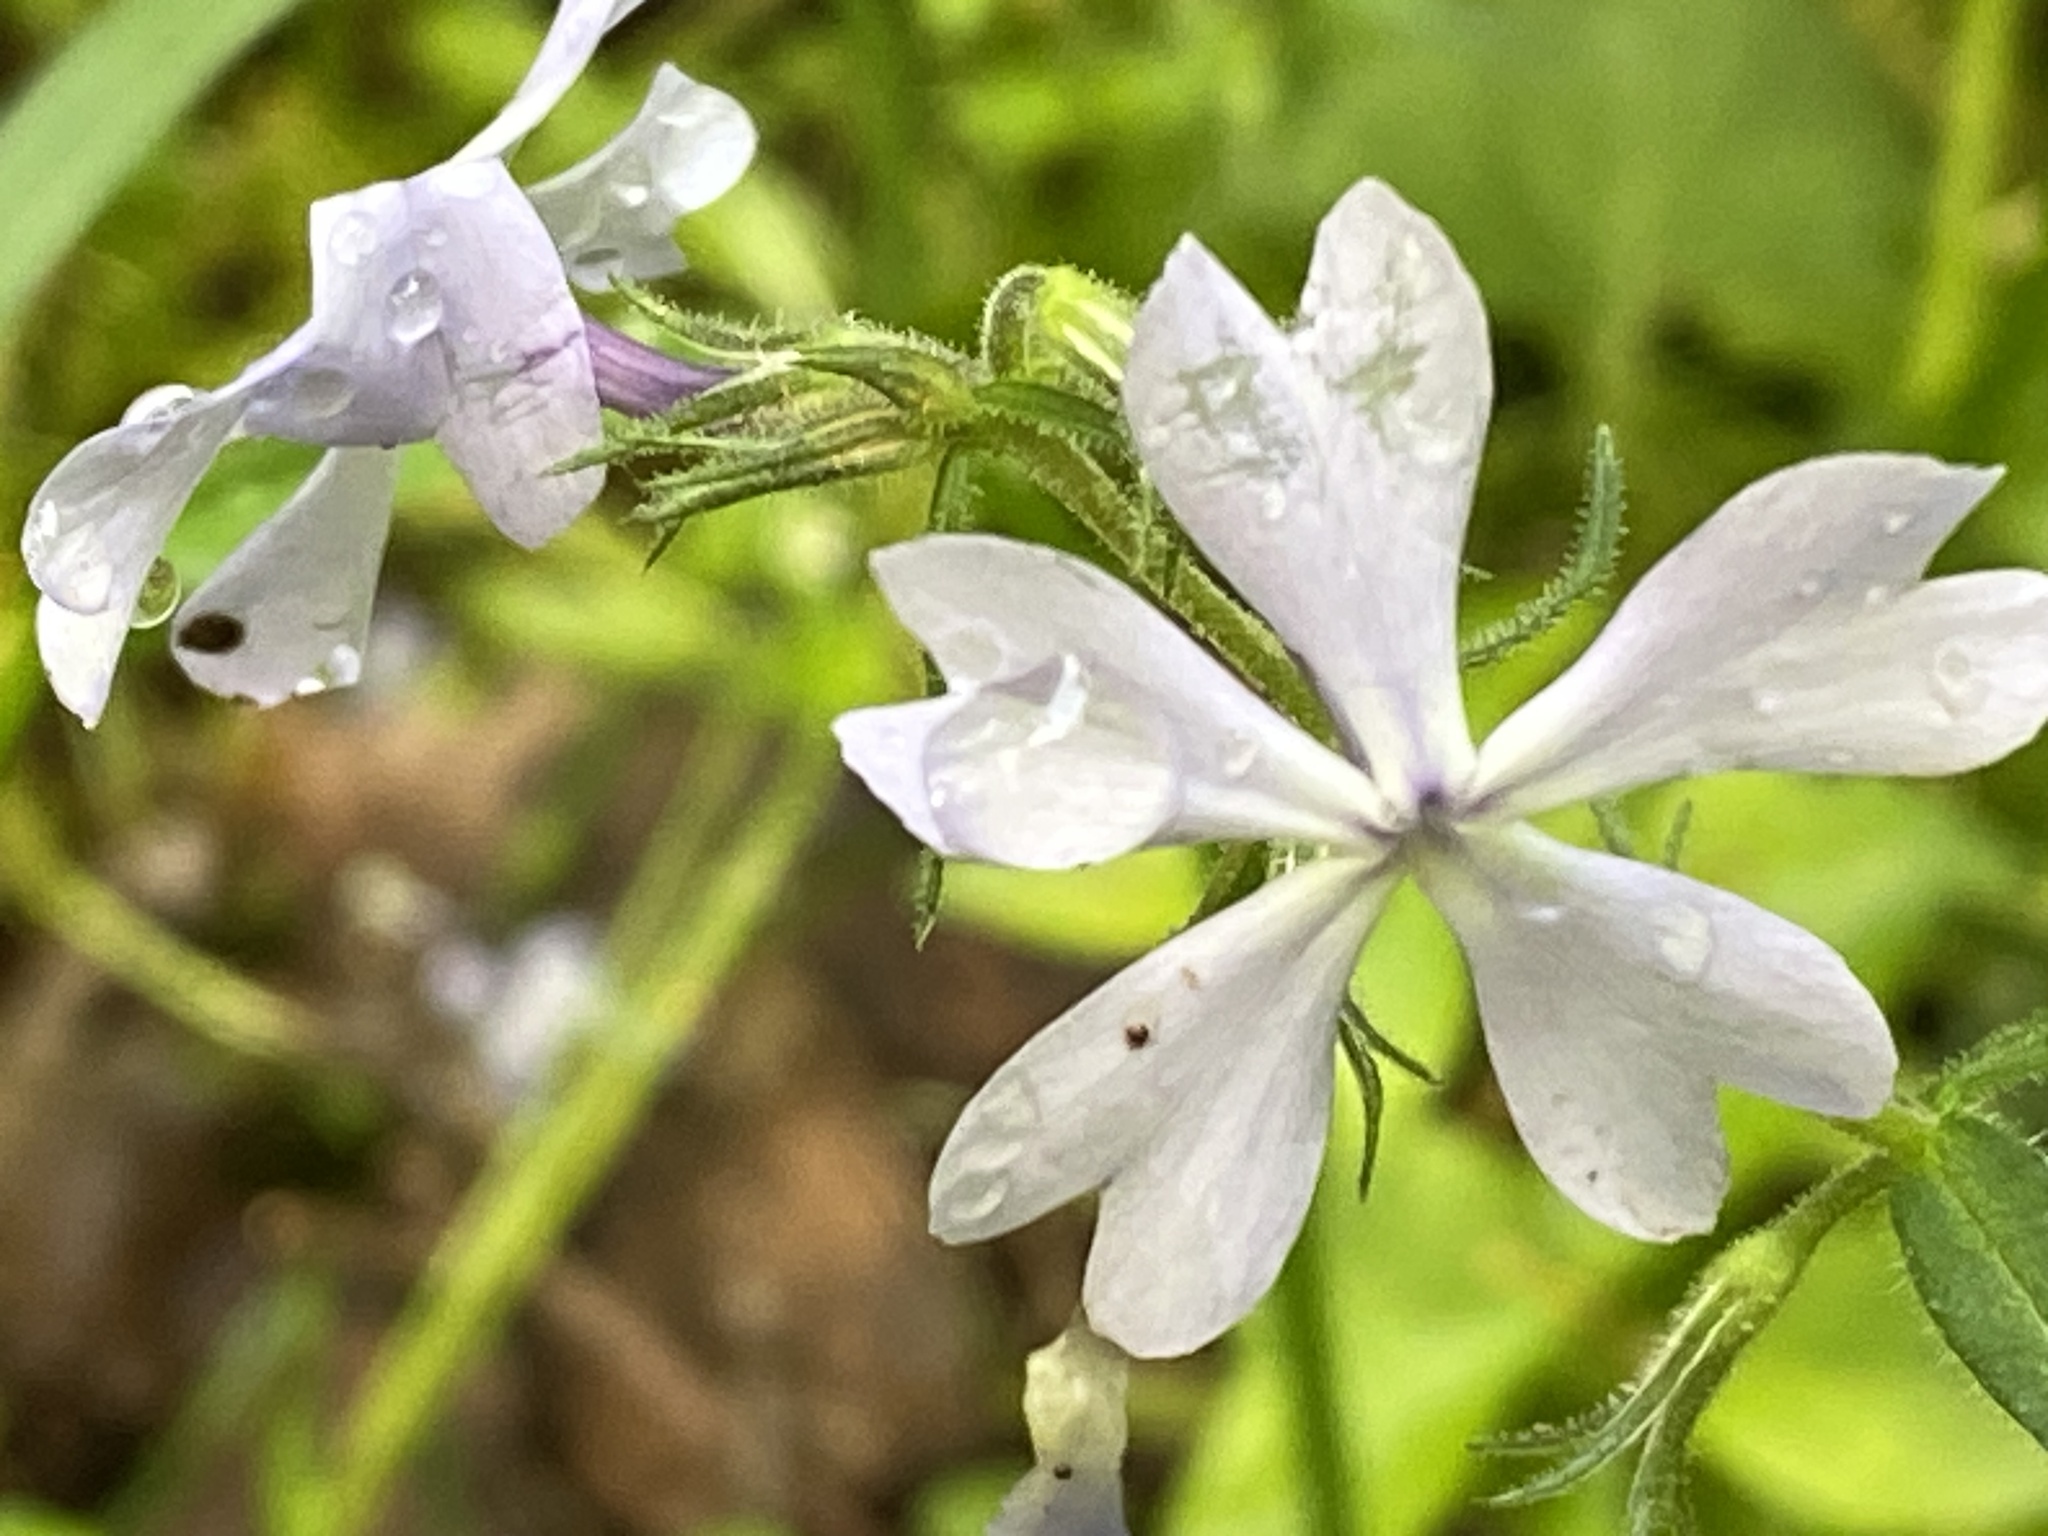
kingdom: Plantae
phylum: Tracheophyta
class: Magnoliopsida
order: Ericales
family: Polemoniaceae
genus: Phlox
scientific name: Phlox divaricata
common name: Blue phlox
